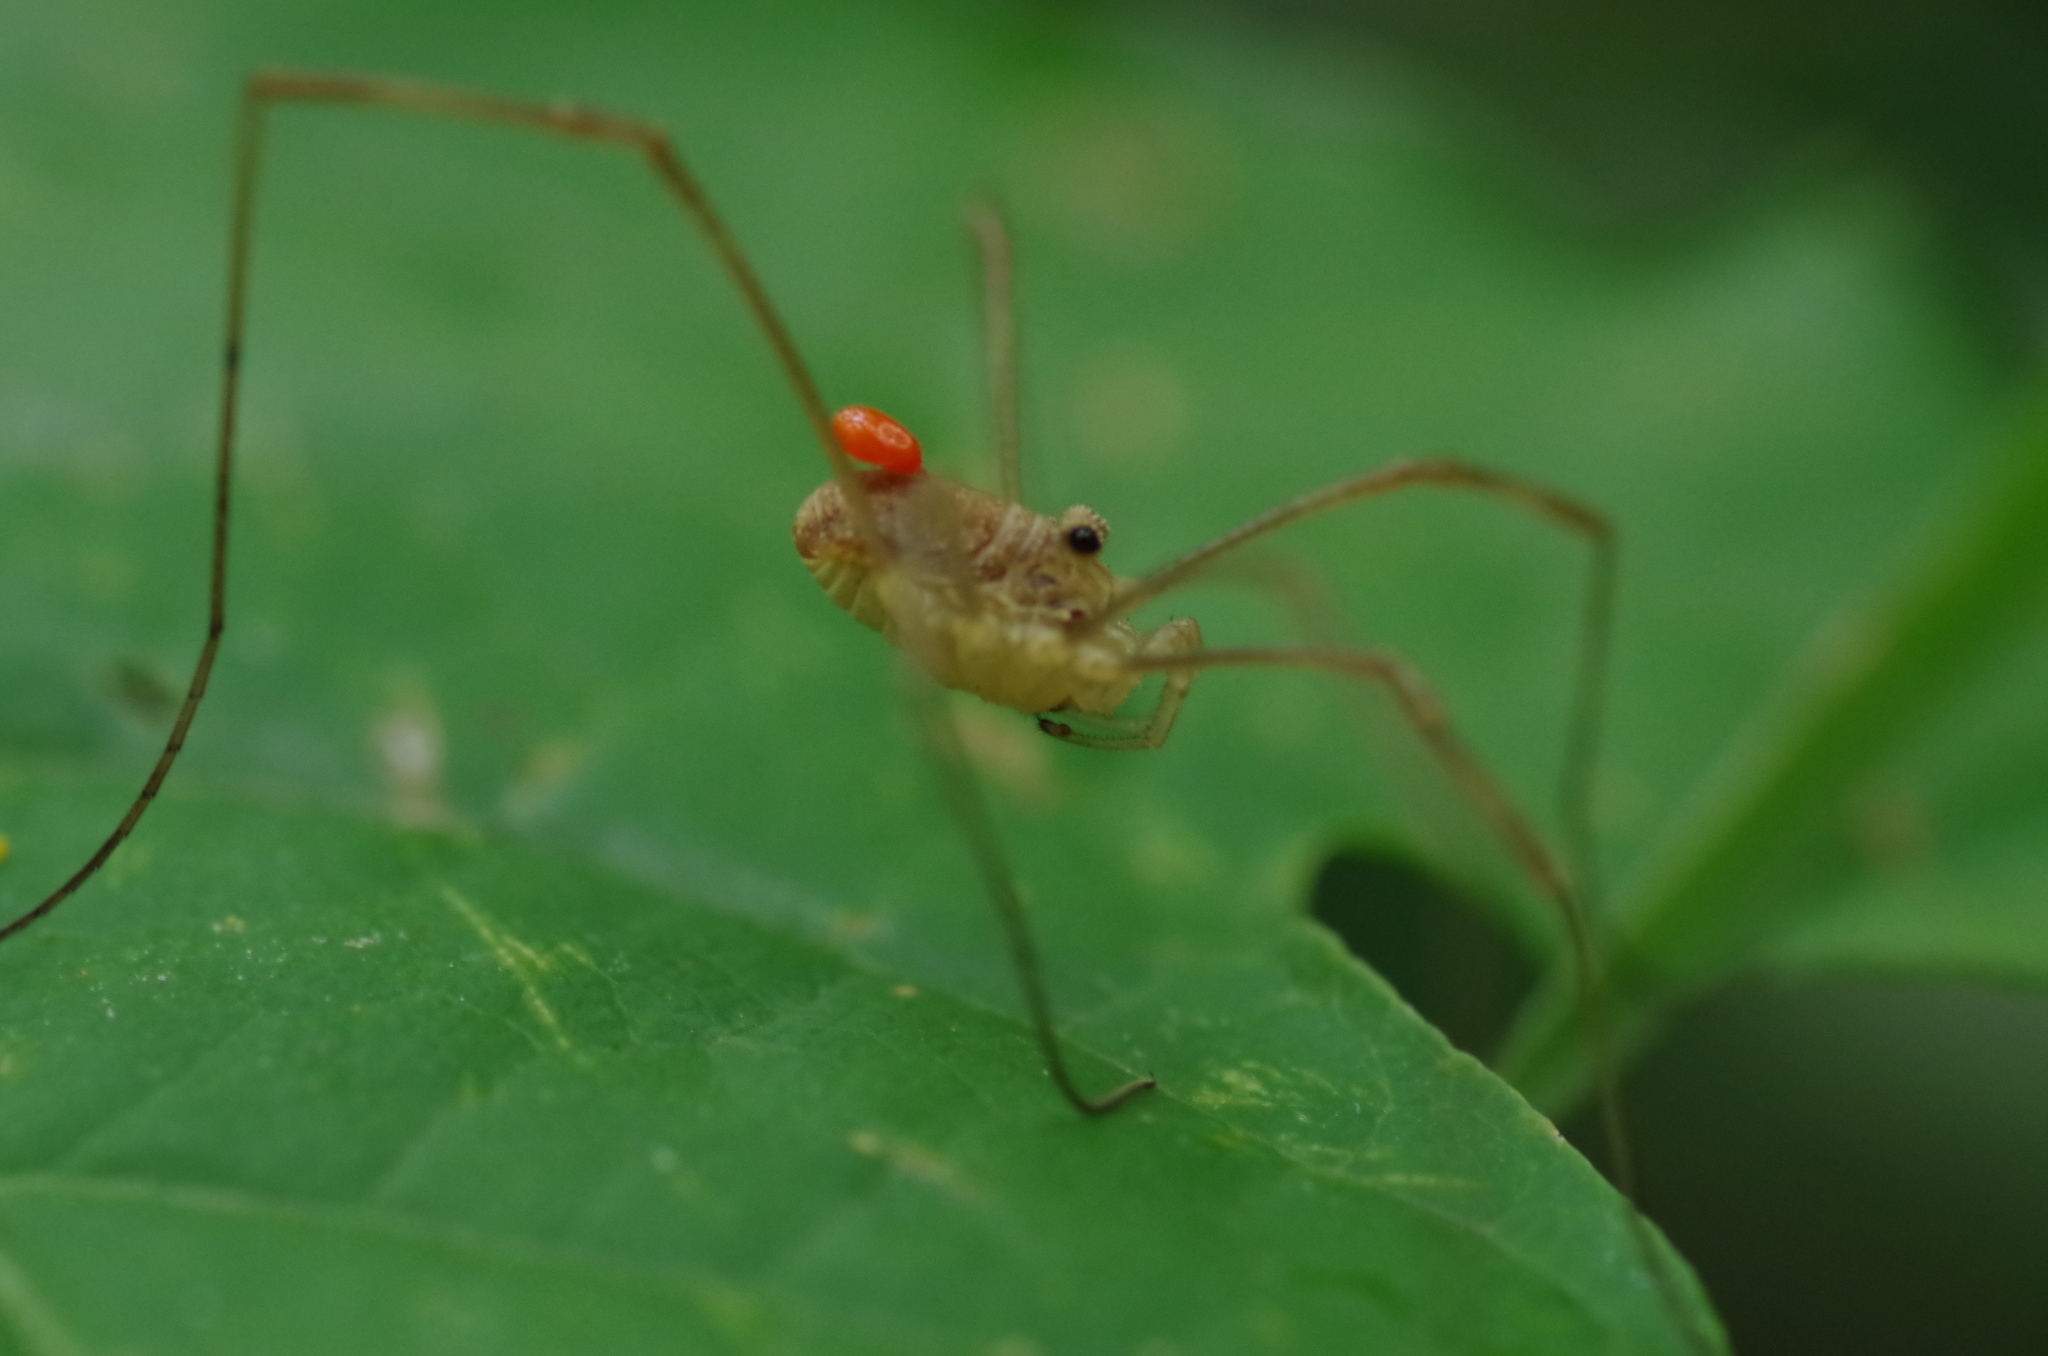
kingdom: Animalia
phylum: Arthropoda
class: Arachnida
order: Opiliones
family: Phalangiidae
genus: Rilaena
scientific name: Rilaena triangularis
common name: Spring harvestman
